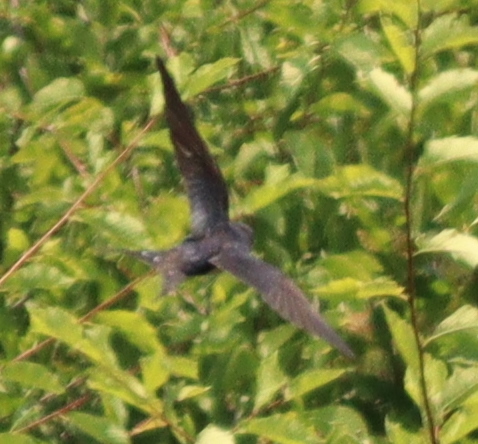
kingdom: Animalia
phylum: Chordata
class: Aves
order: Passeriformes
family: Hirundinidae
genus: Hirundo
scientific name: Hirundo rustica
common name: Barn swallow
